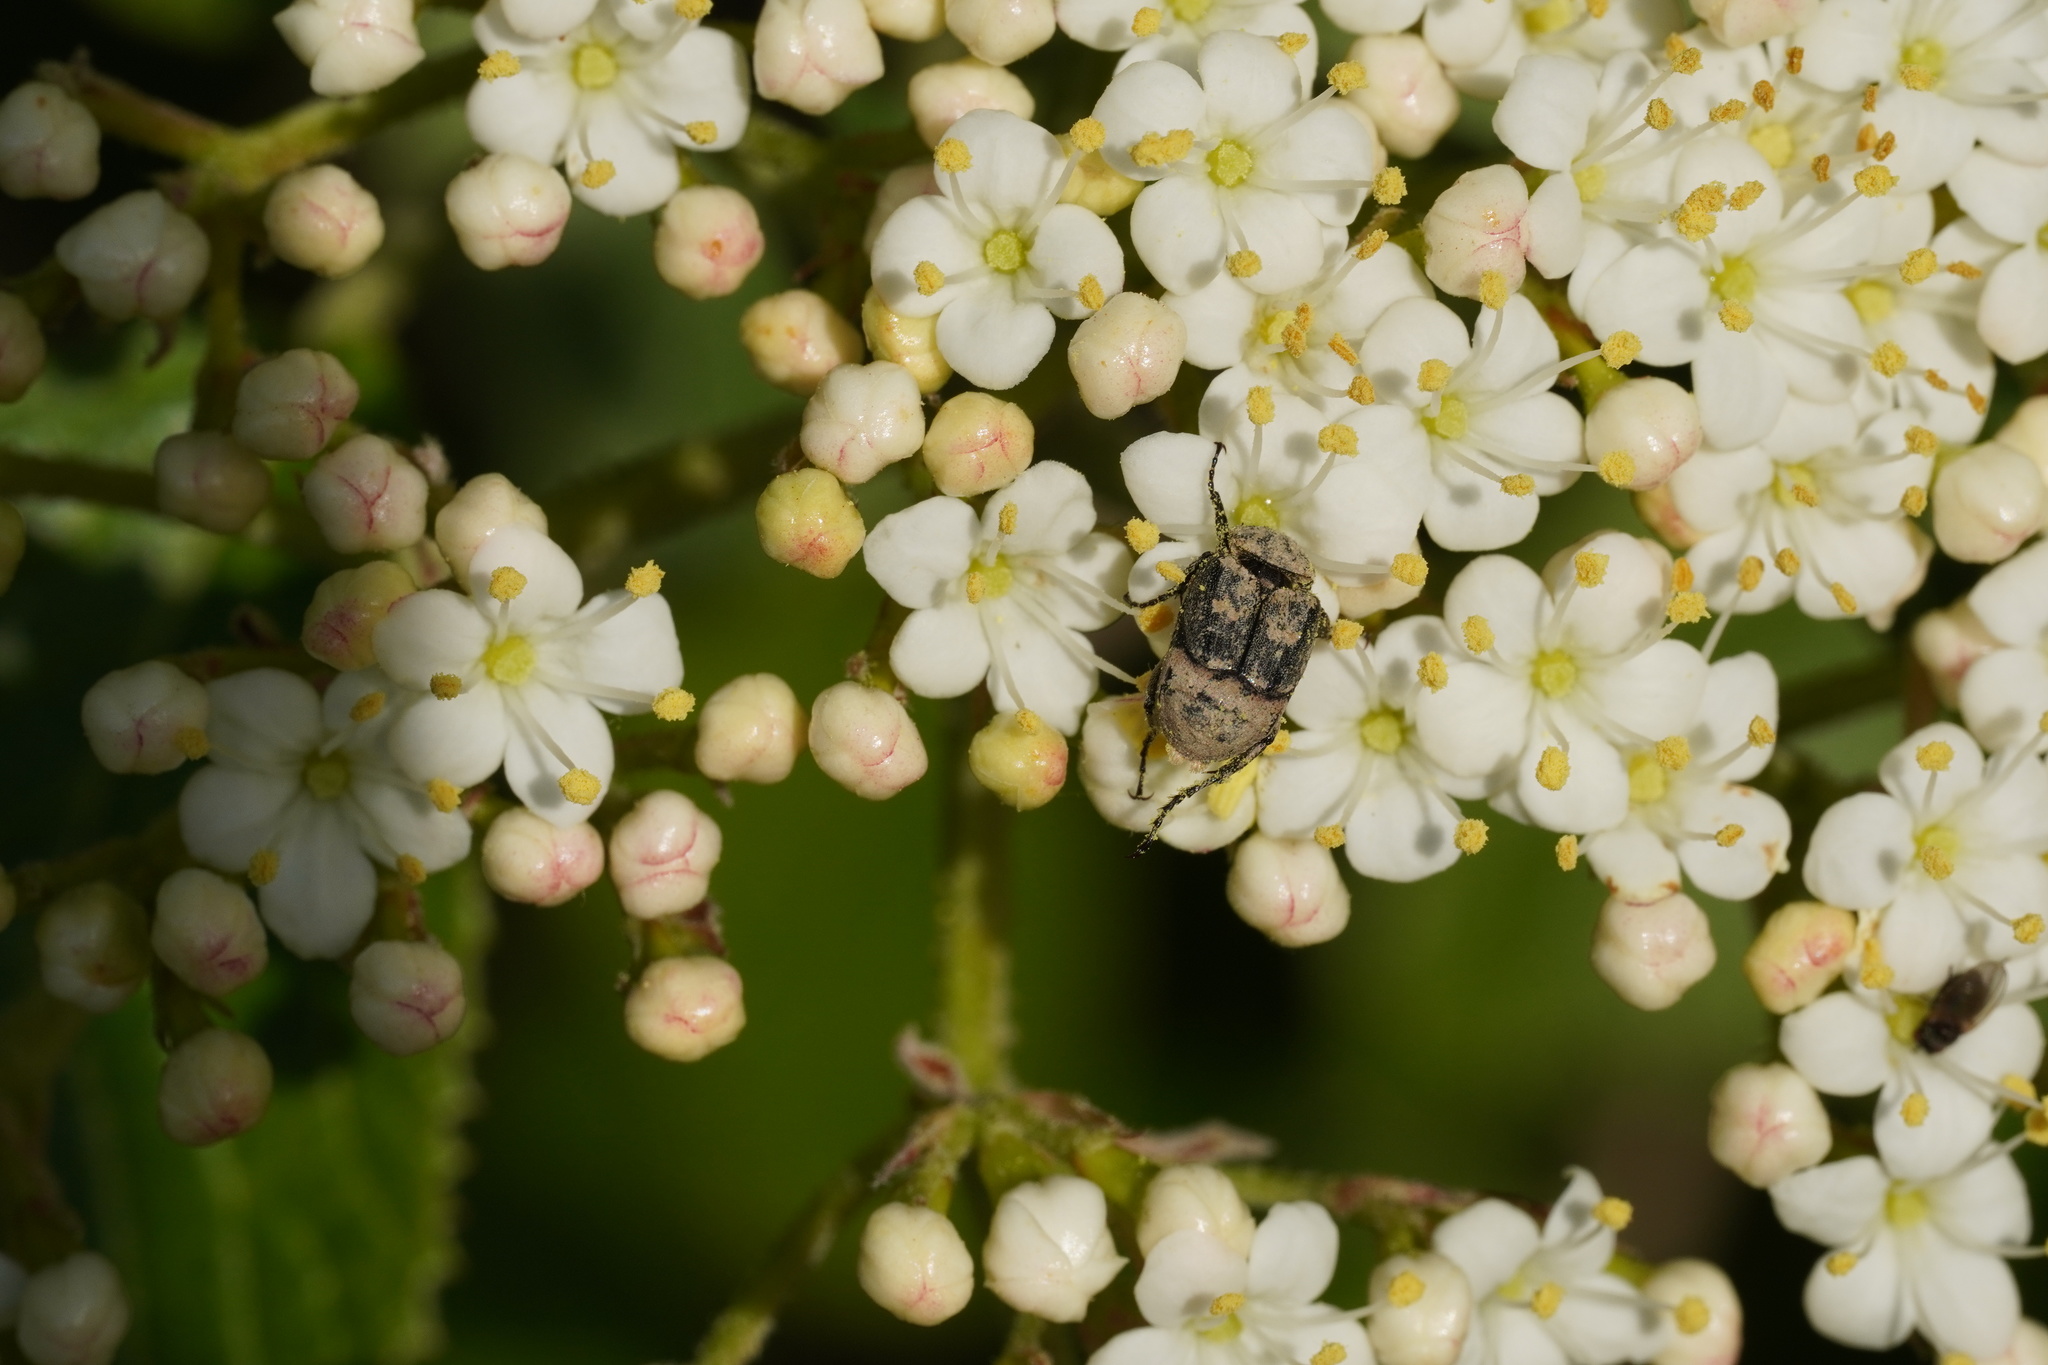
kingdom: Animalia
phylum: Arthropoda
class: Insecta
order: Coleoptera
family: Scarabaeidae
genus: Valgus
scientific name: Valgus hemipterus
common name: Bug flower chafer
